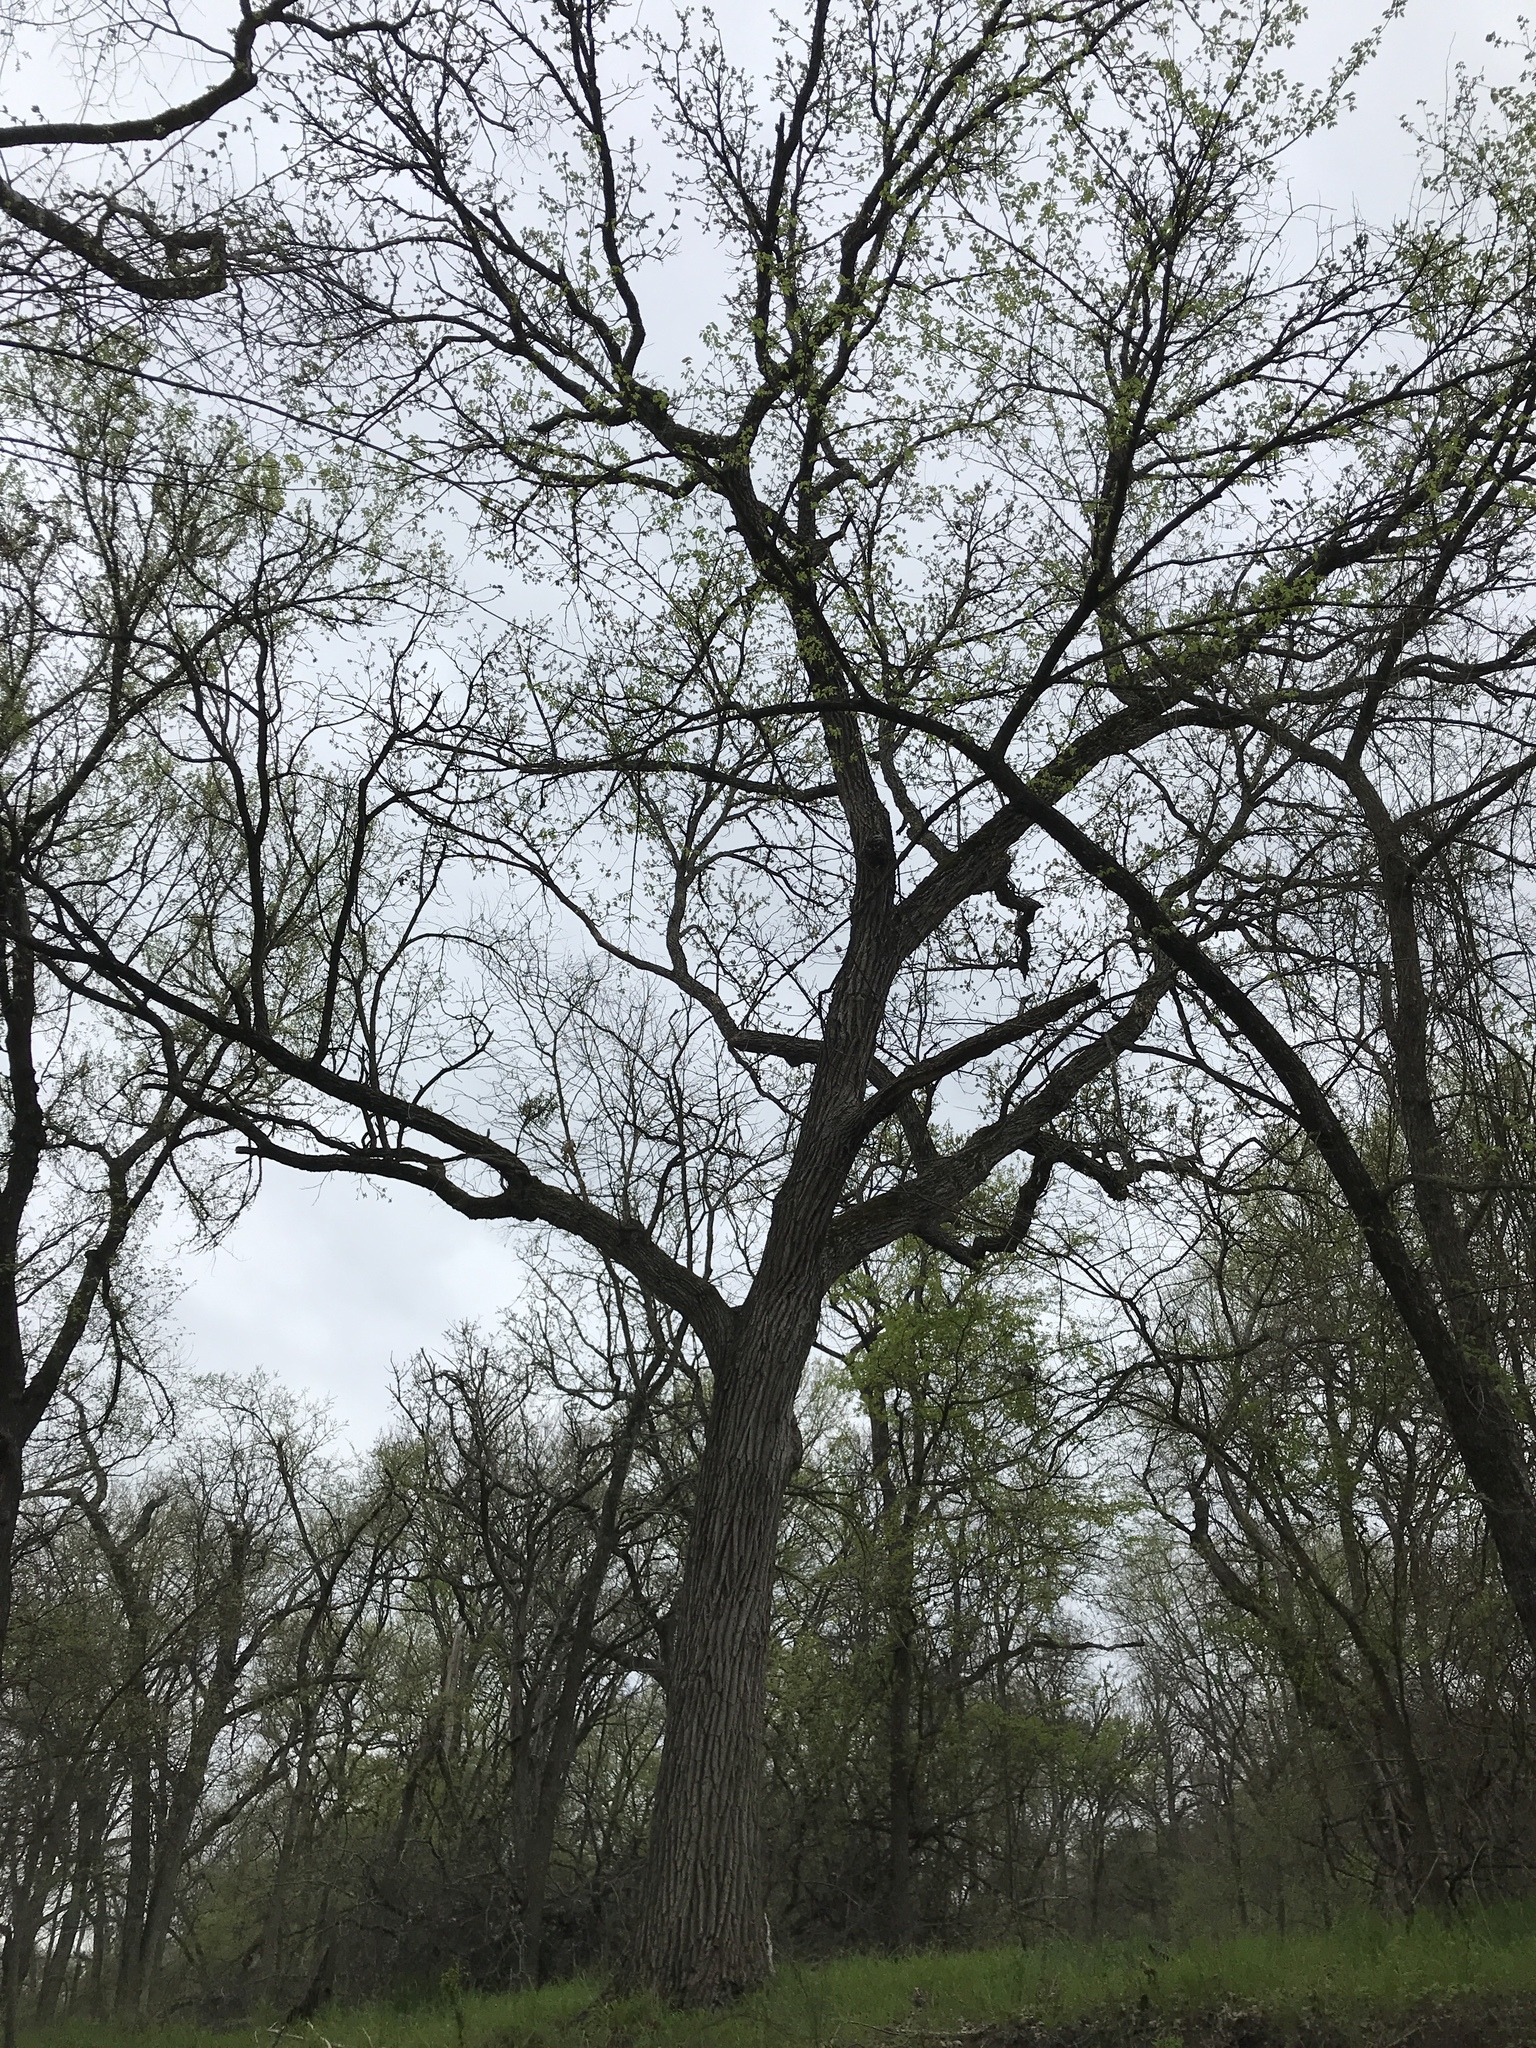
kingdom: Plantae
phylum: Tracheophyta
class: Magnoliopsida
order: Fagales
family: Fagaceae
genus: Quercus
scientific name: Quercus macrocarpa
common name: Bur oak
